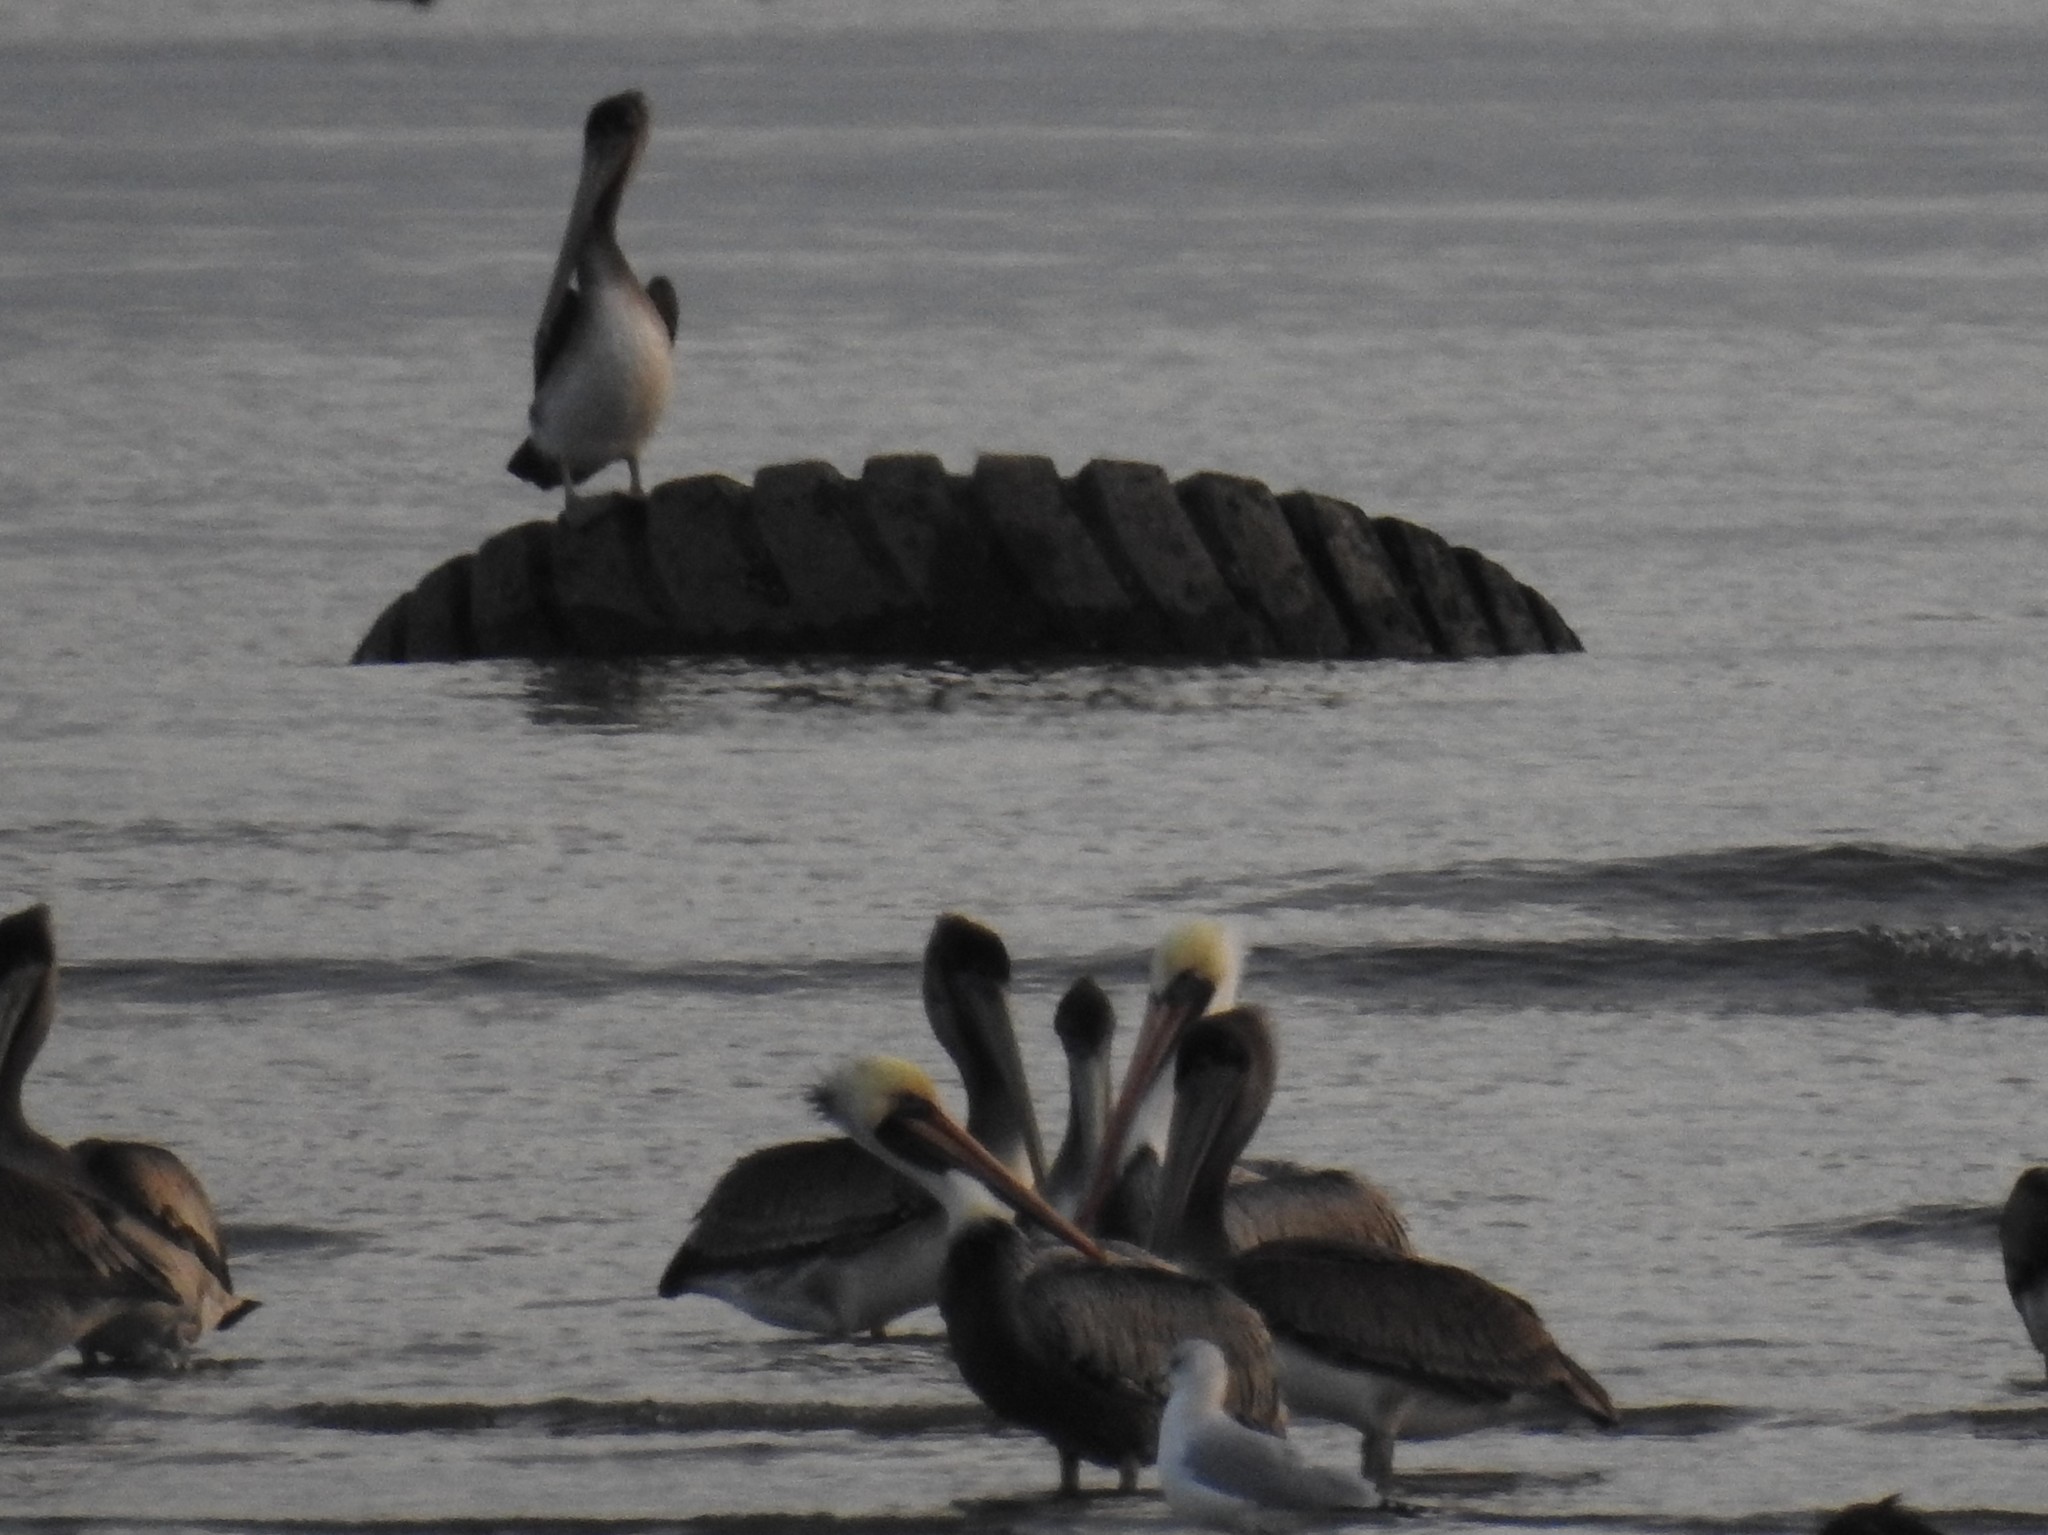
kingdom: Animalia
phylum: Chordata
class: Aves
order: Pelecaniformes
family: Pelecanidae
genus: Pelecanus
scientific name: Pelecanus occidentalis
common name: Brown pelican
